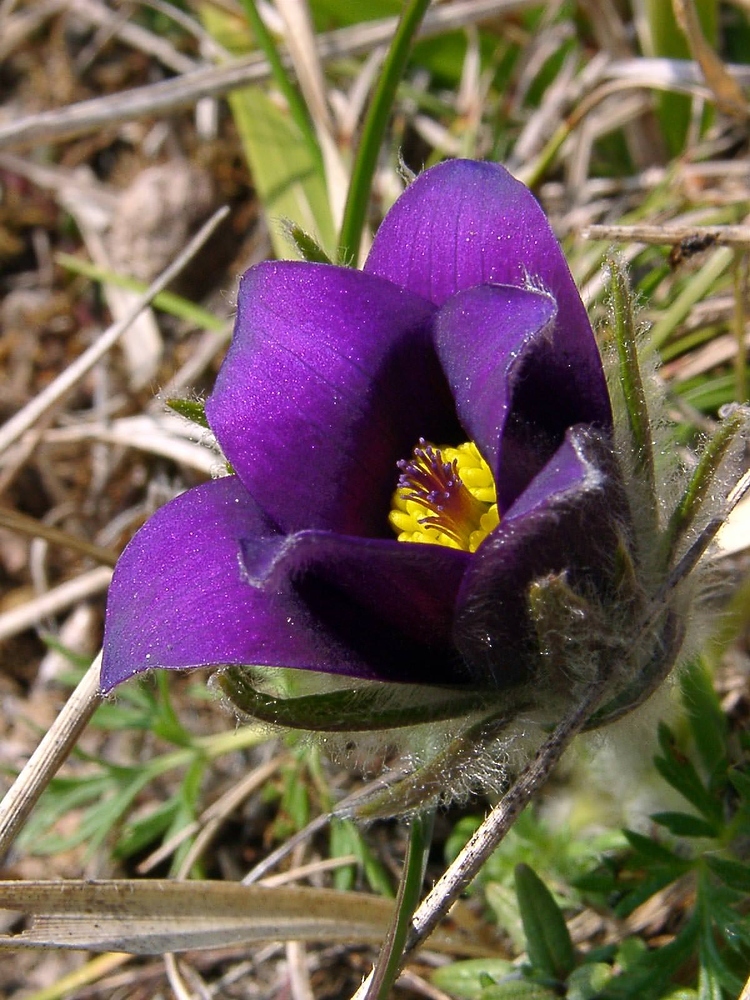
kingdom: Plantae
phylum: Tracheophyta
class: Magnoliopsida
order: Ranunculales
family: Ranunculaceae
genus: Pulsatilla
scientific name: Pulsatilla vulgaris
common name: Pasqueflower
